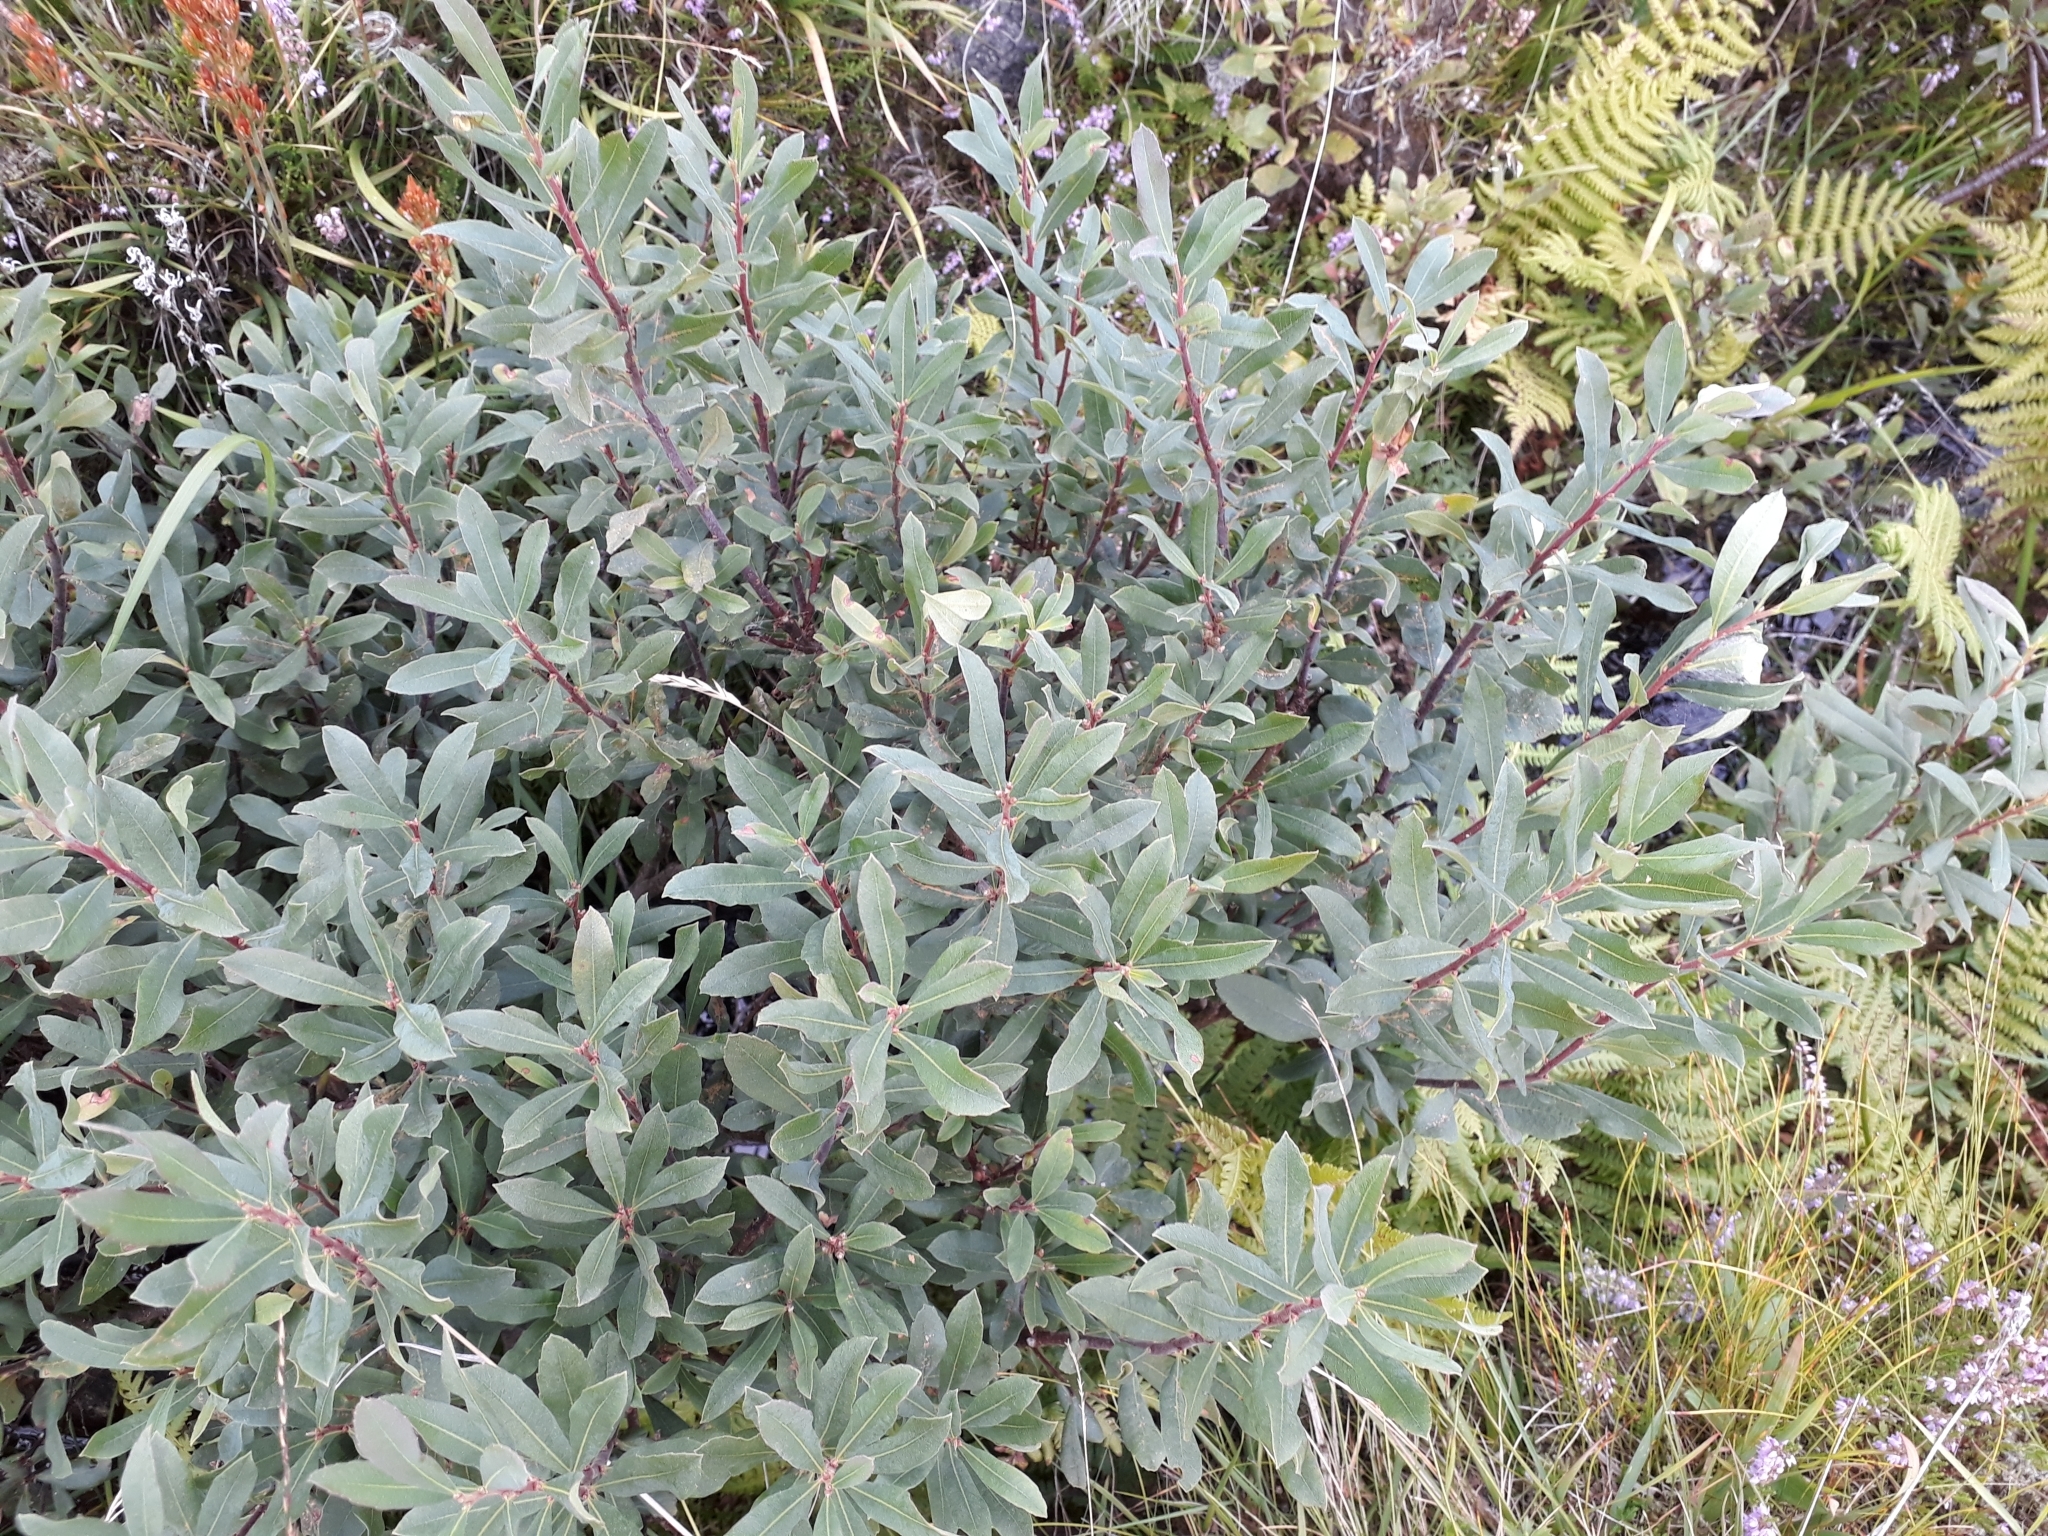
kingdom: Plantae
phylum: Tracheophyta
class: Magnoliopsida
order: Fagales
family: Myricaceae
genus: Myrica
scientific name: Myrica gale
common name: Sweet gale
